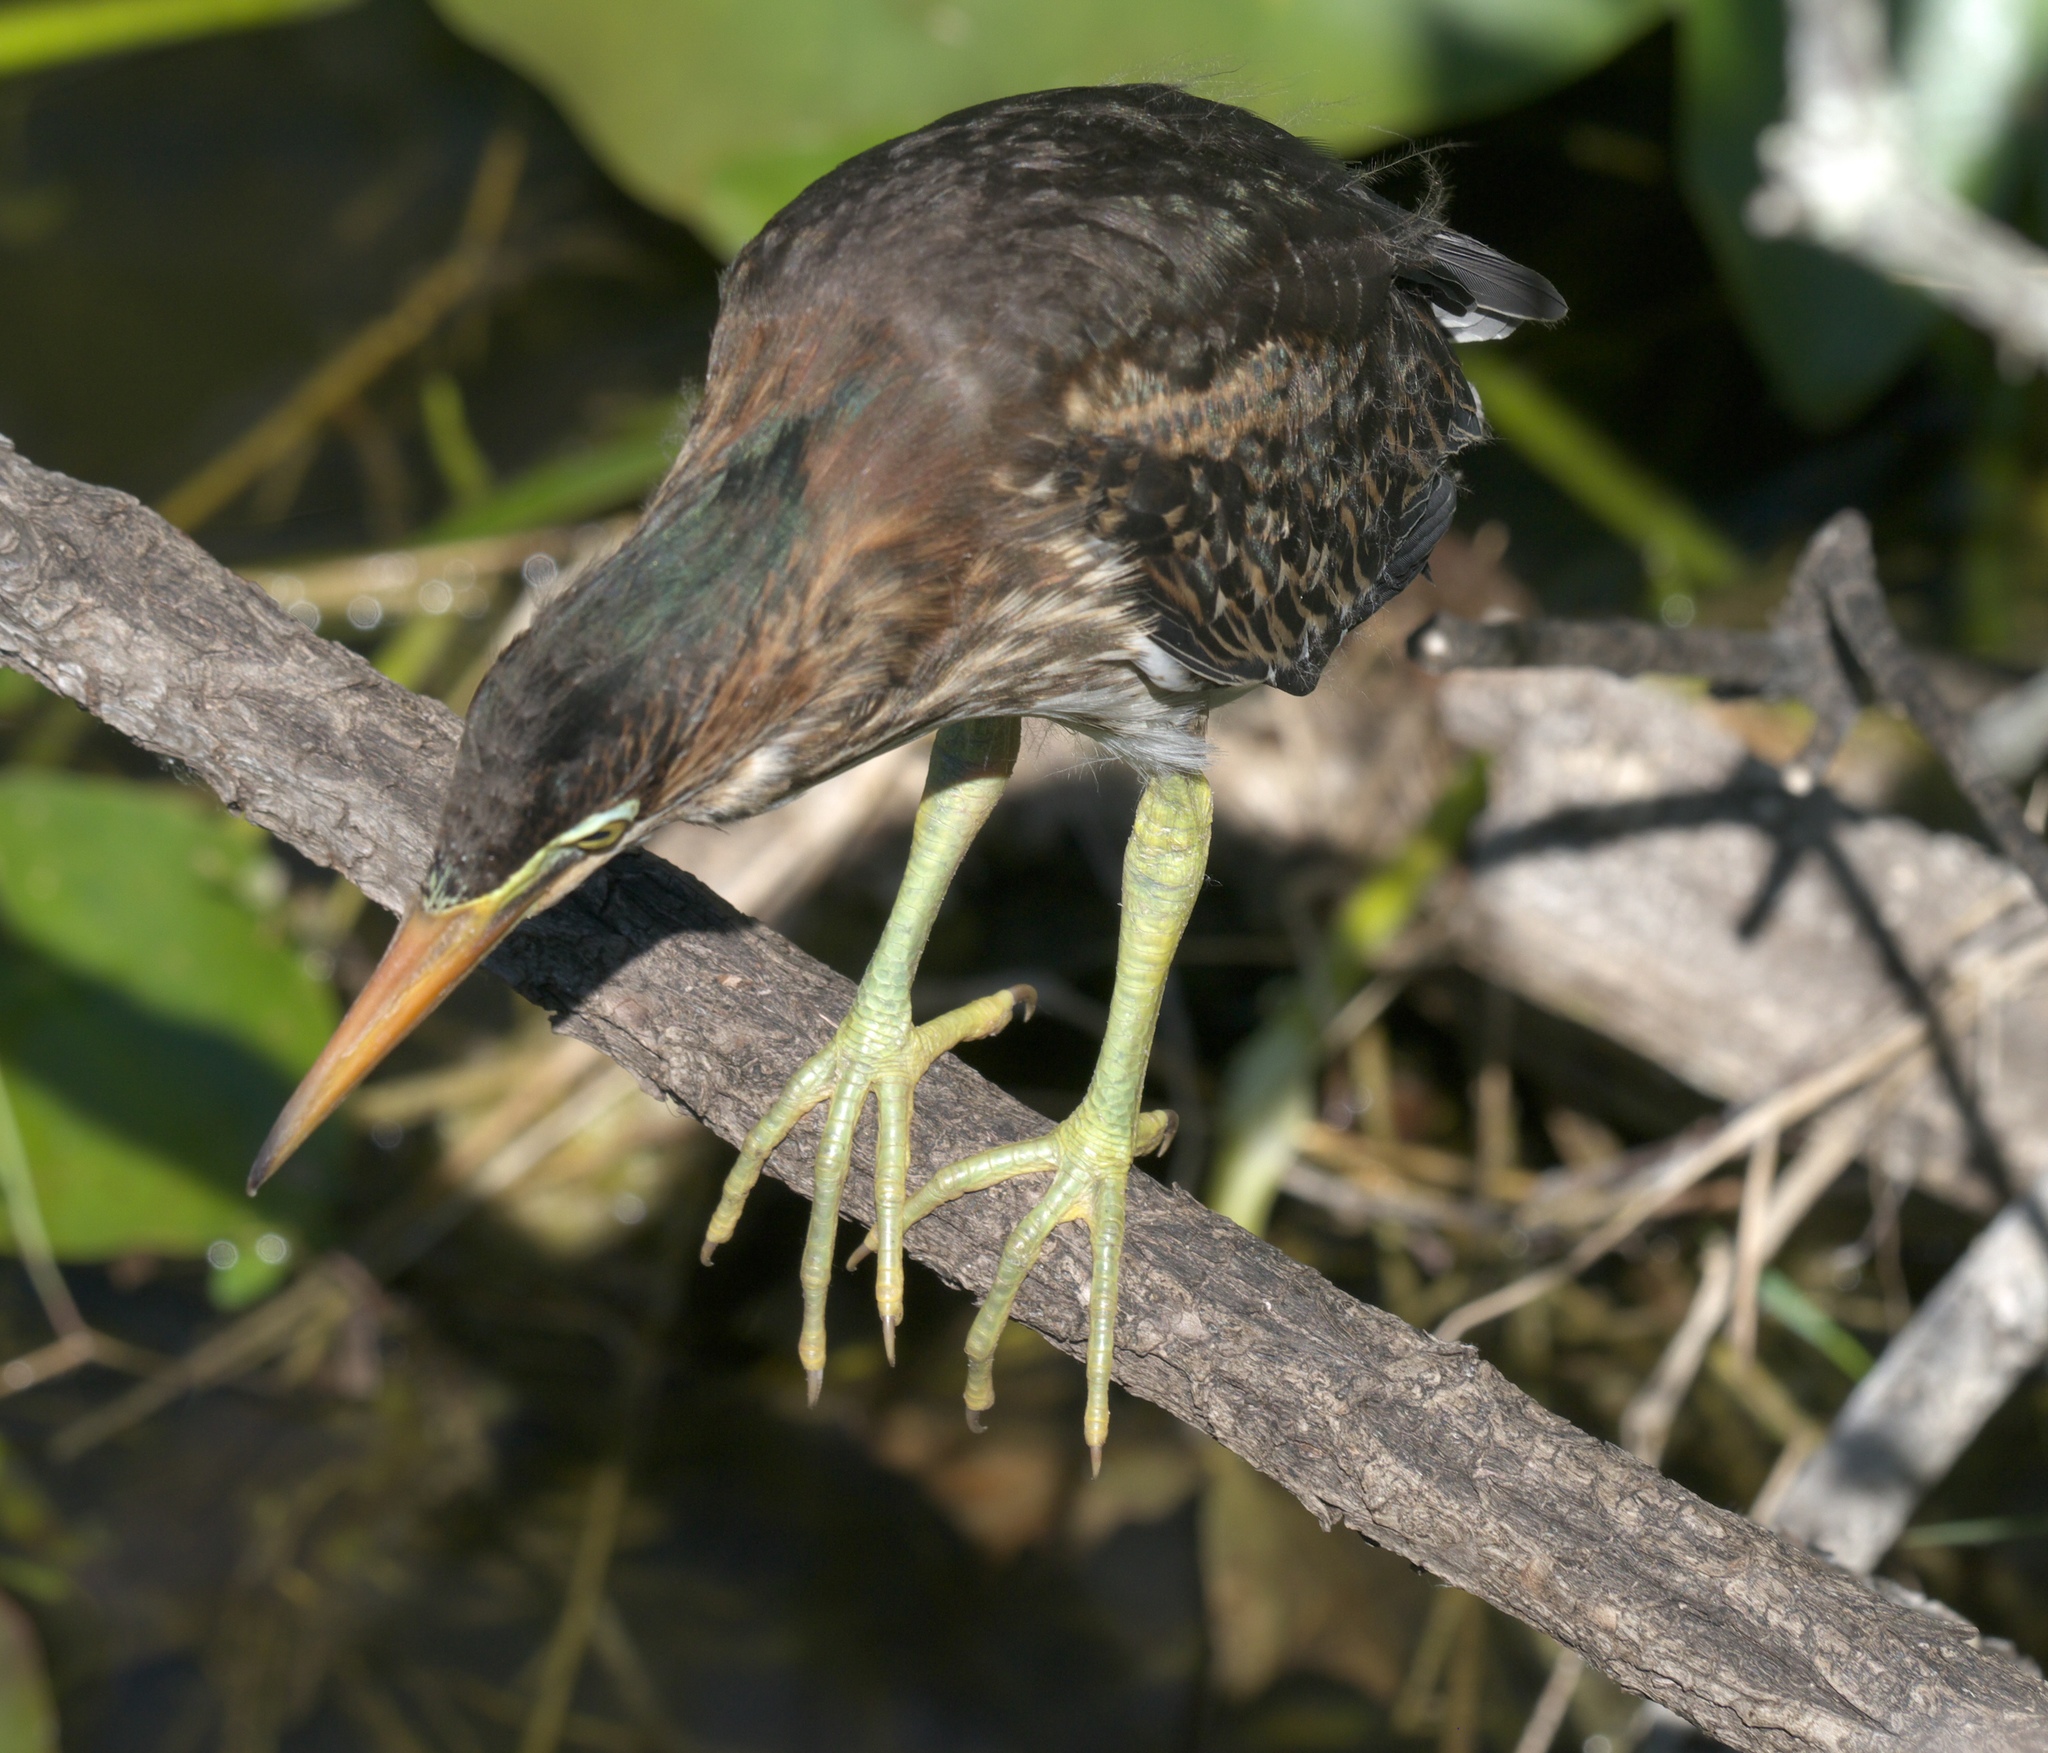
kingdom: Animalia
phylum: Chordata
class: Aves
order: Pelecaniformes
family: Ardeidae
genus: Butorides
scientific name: Butorides virescens
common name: Green heron
